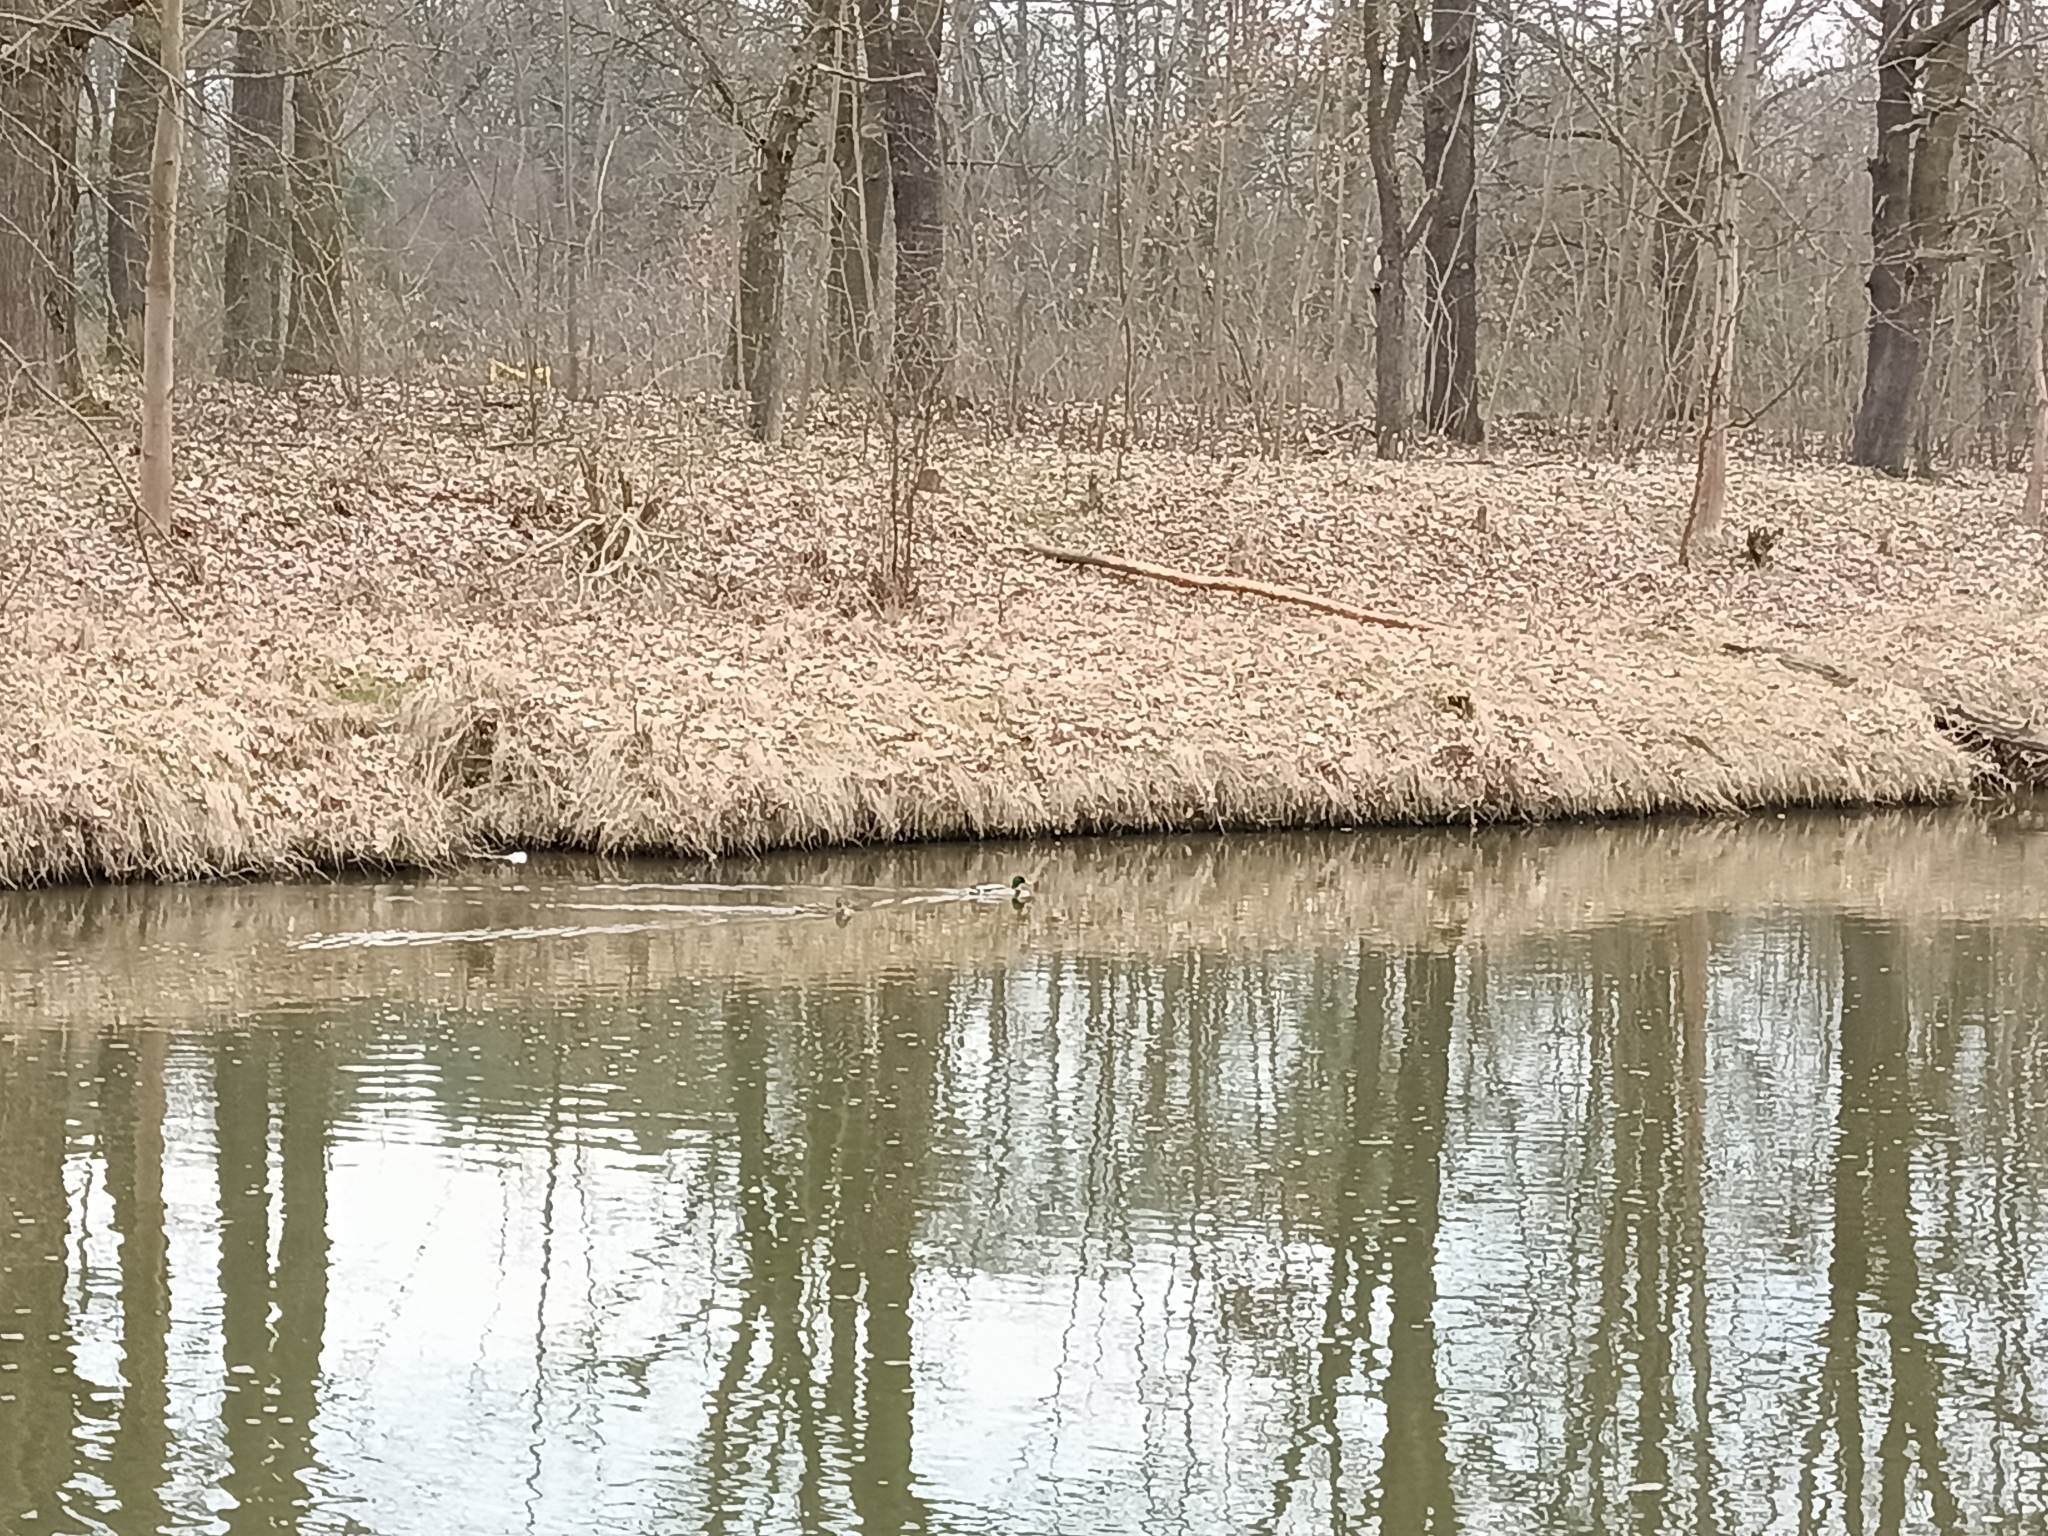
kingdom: Animalia
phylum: Chordata
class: Aves
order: Anseriformes
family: Anatidae
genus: Anas
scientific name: Anas platyrhynchos
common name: Mallard
